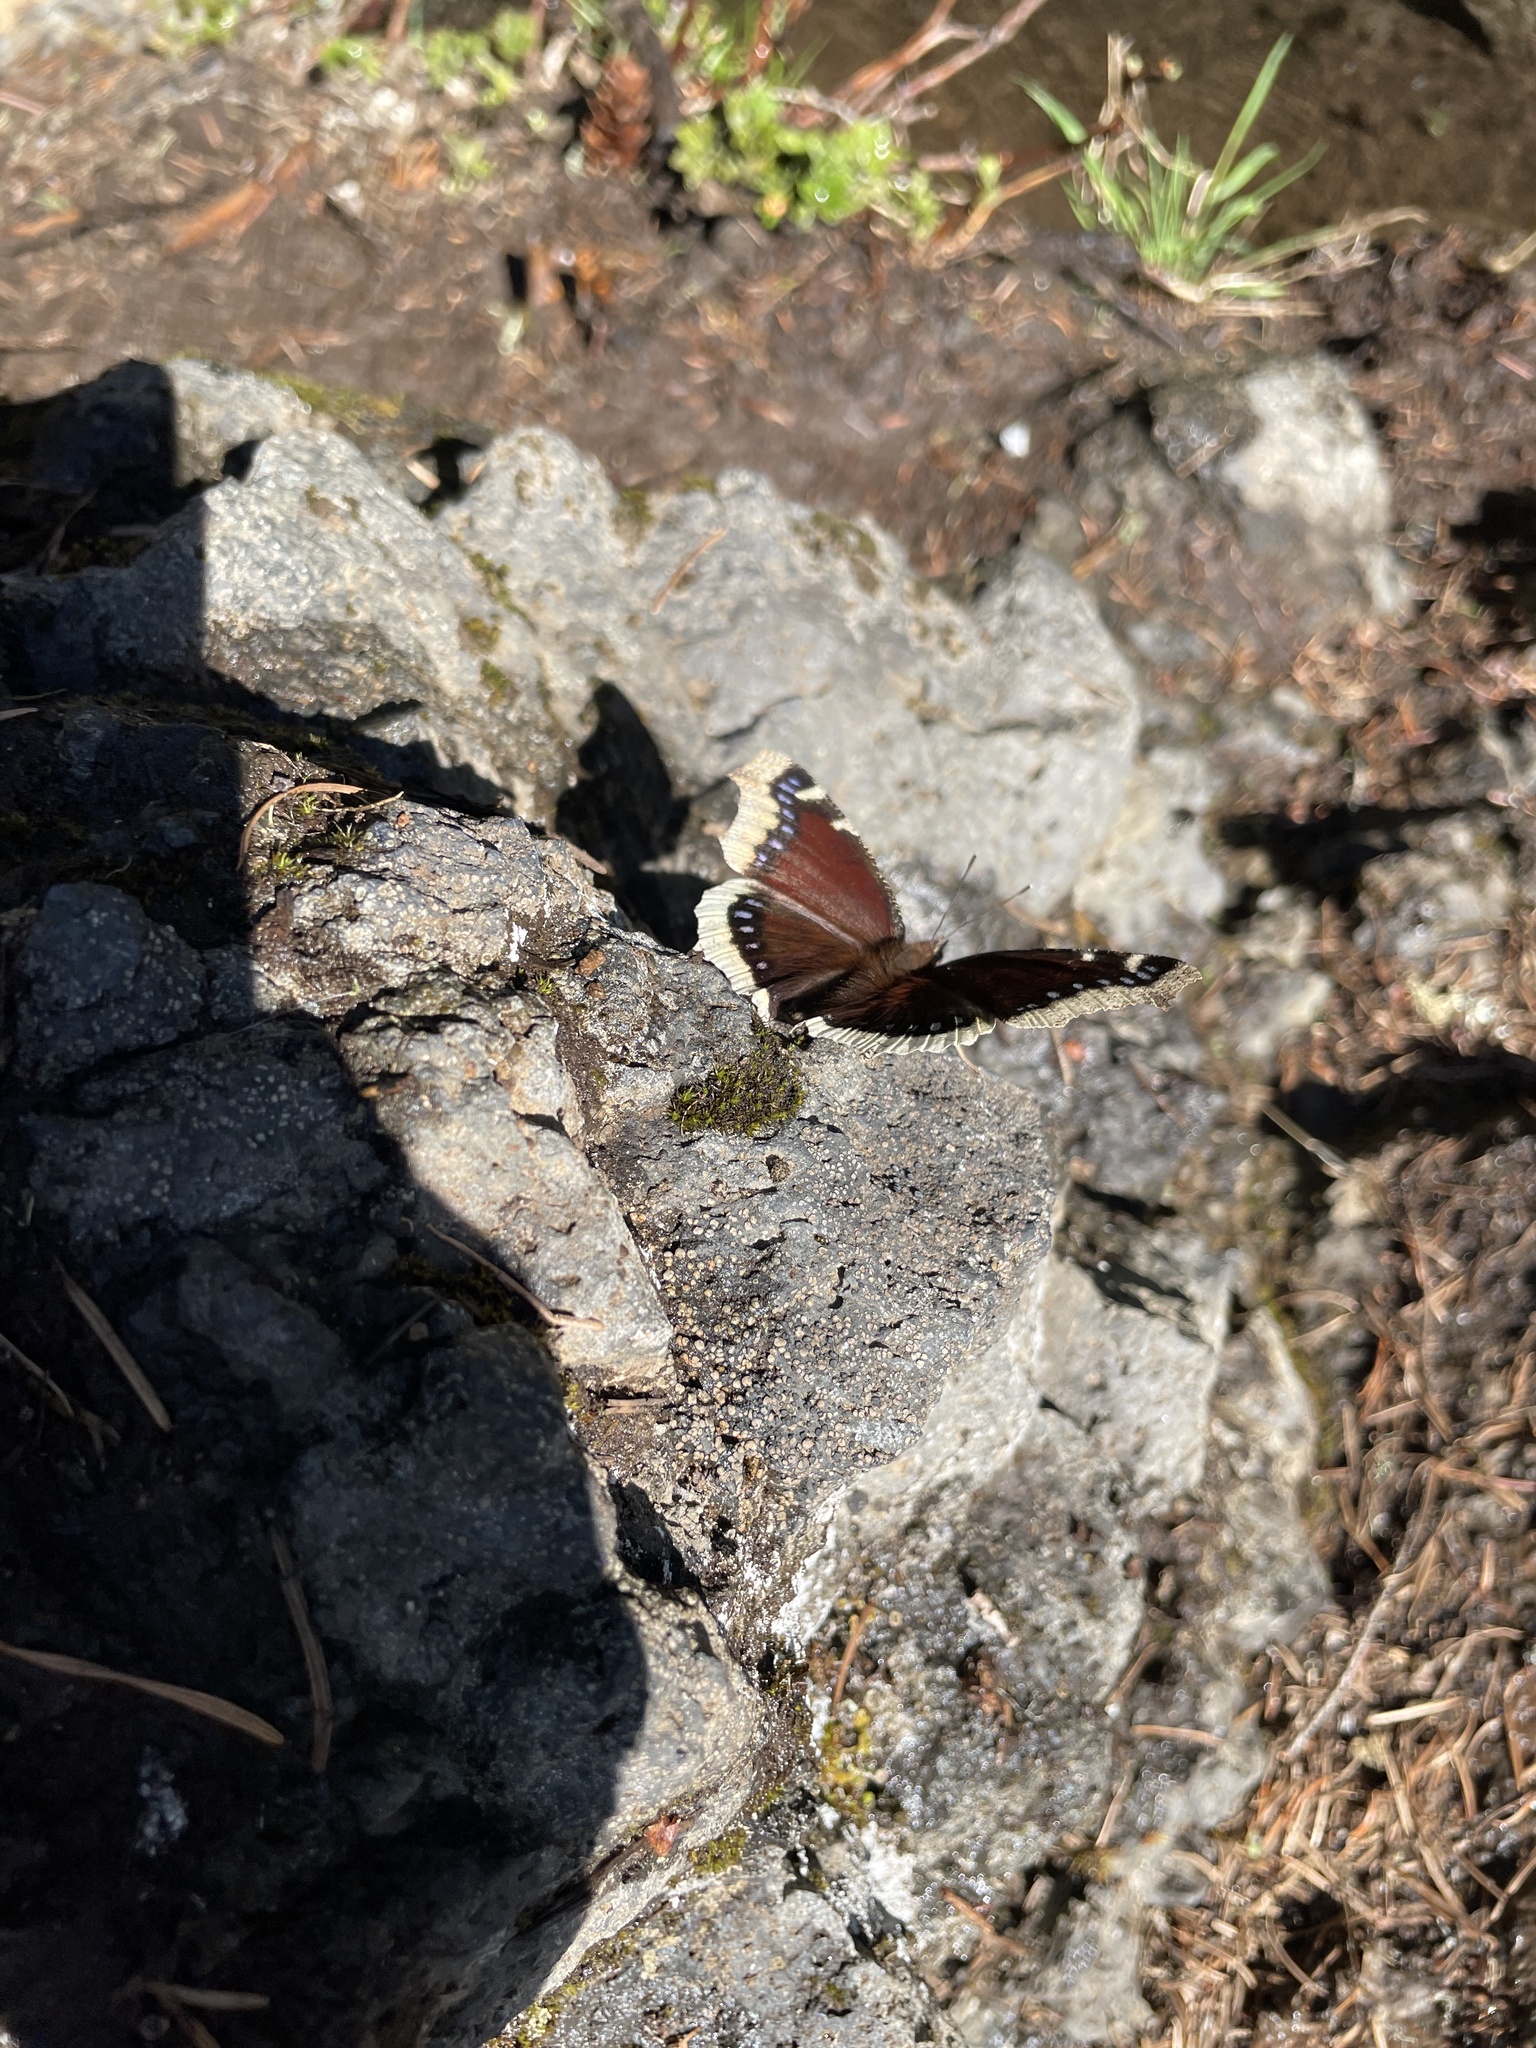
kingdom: Animalia
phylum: Arthropoda
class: Insecta
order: Lepidoptera
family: Nymphalidae
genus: Nymphalis
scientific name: Nymphalis antiopa
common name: Camberwell beauty
